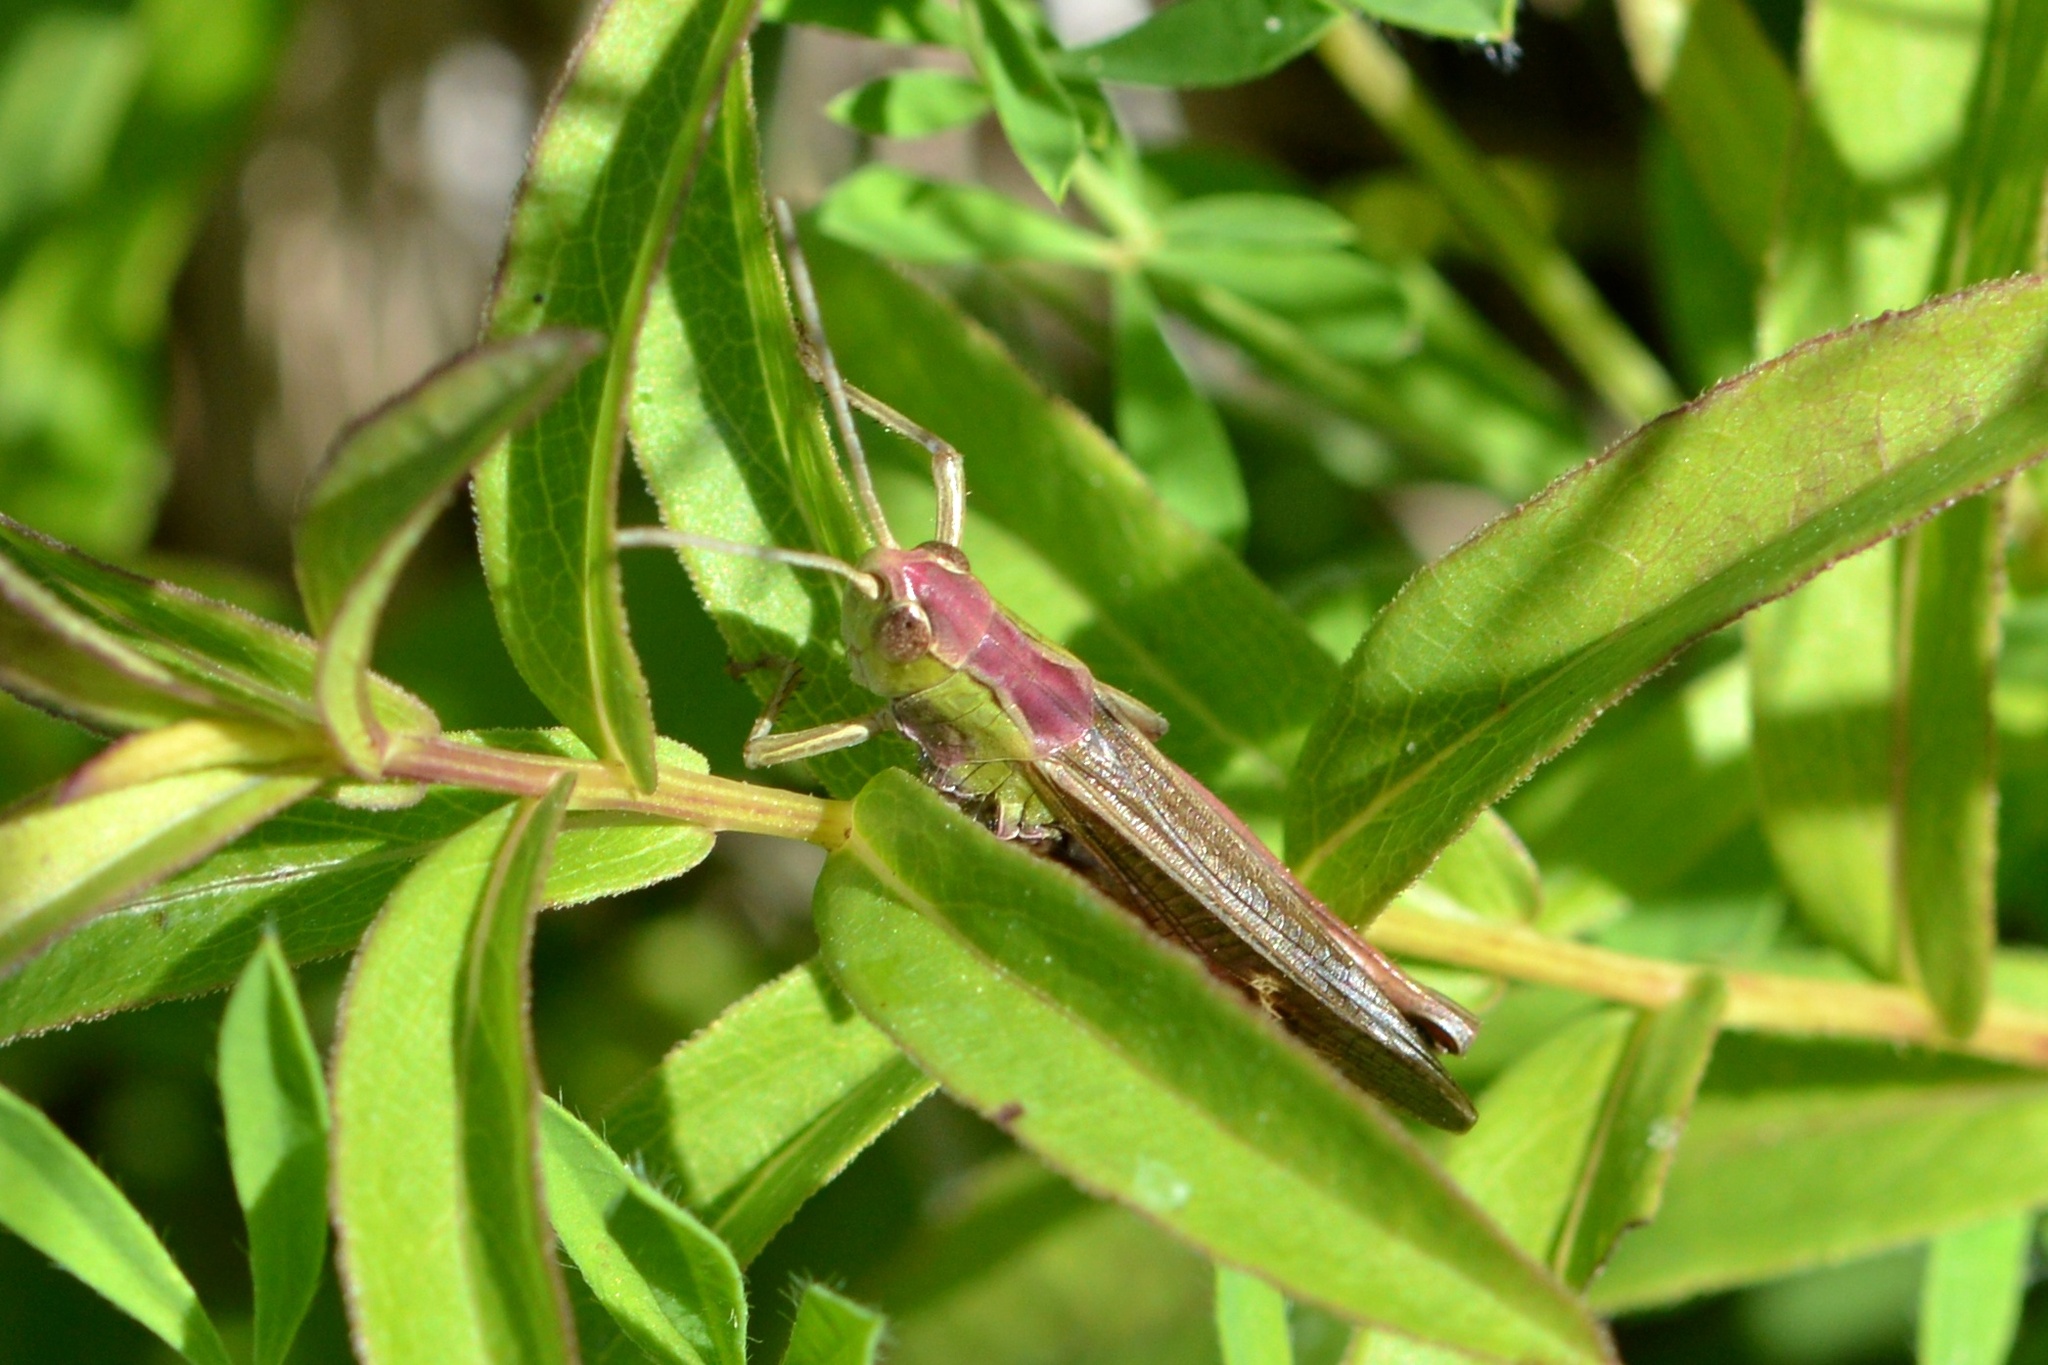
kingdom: Animalia
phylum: Arthropoda
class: Insecta
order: Orthoptera
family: Acrididae
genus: Stenobothrus
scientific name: Stenobothrus lineatus
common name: Stripe-winged grasshopper
